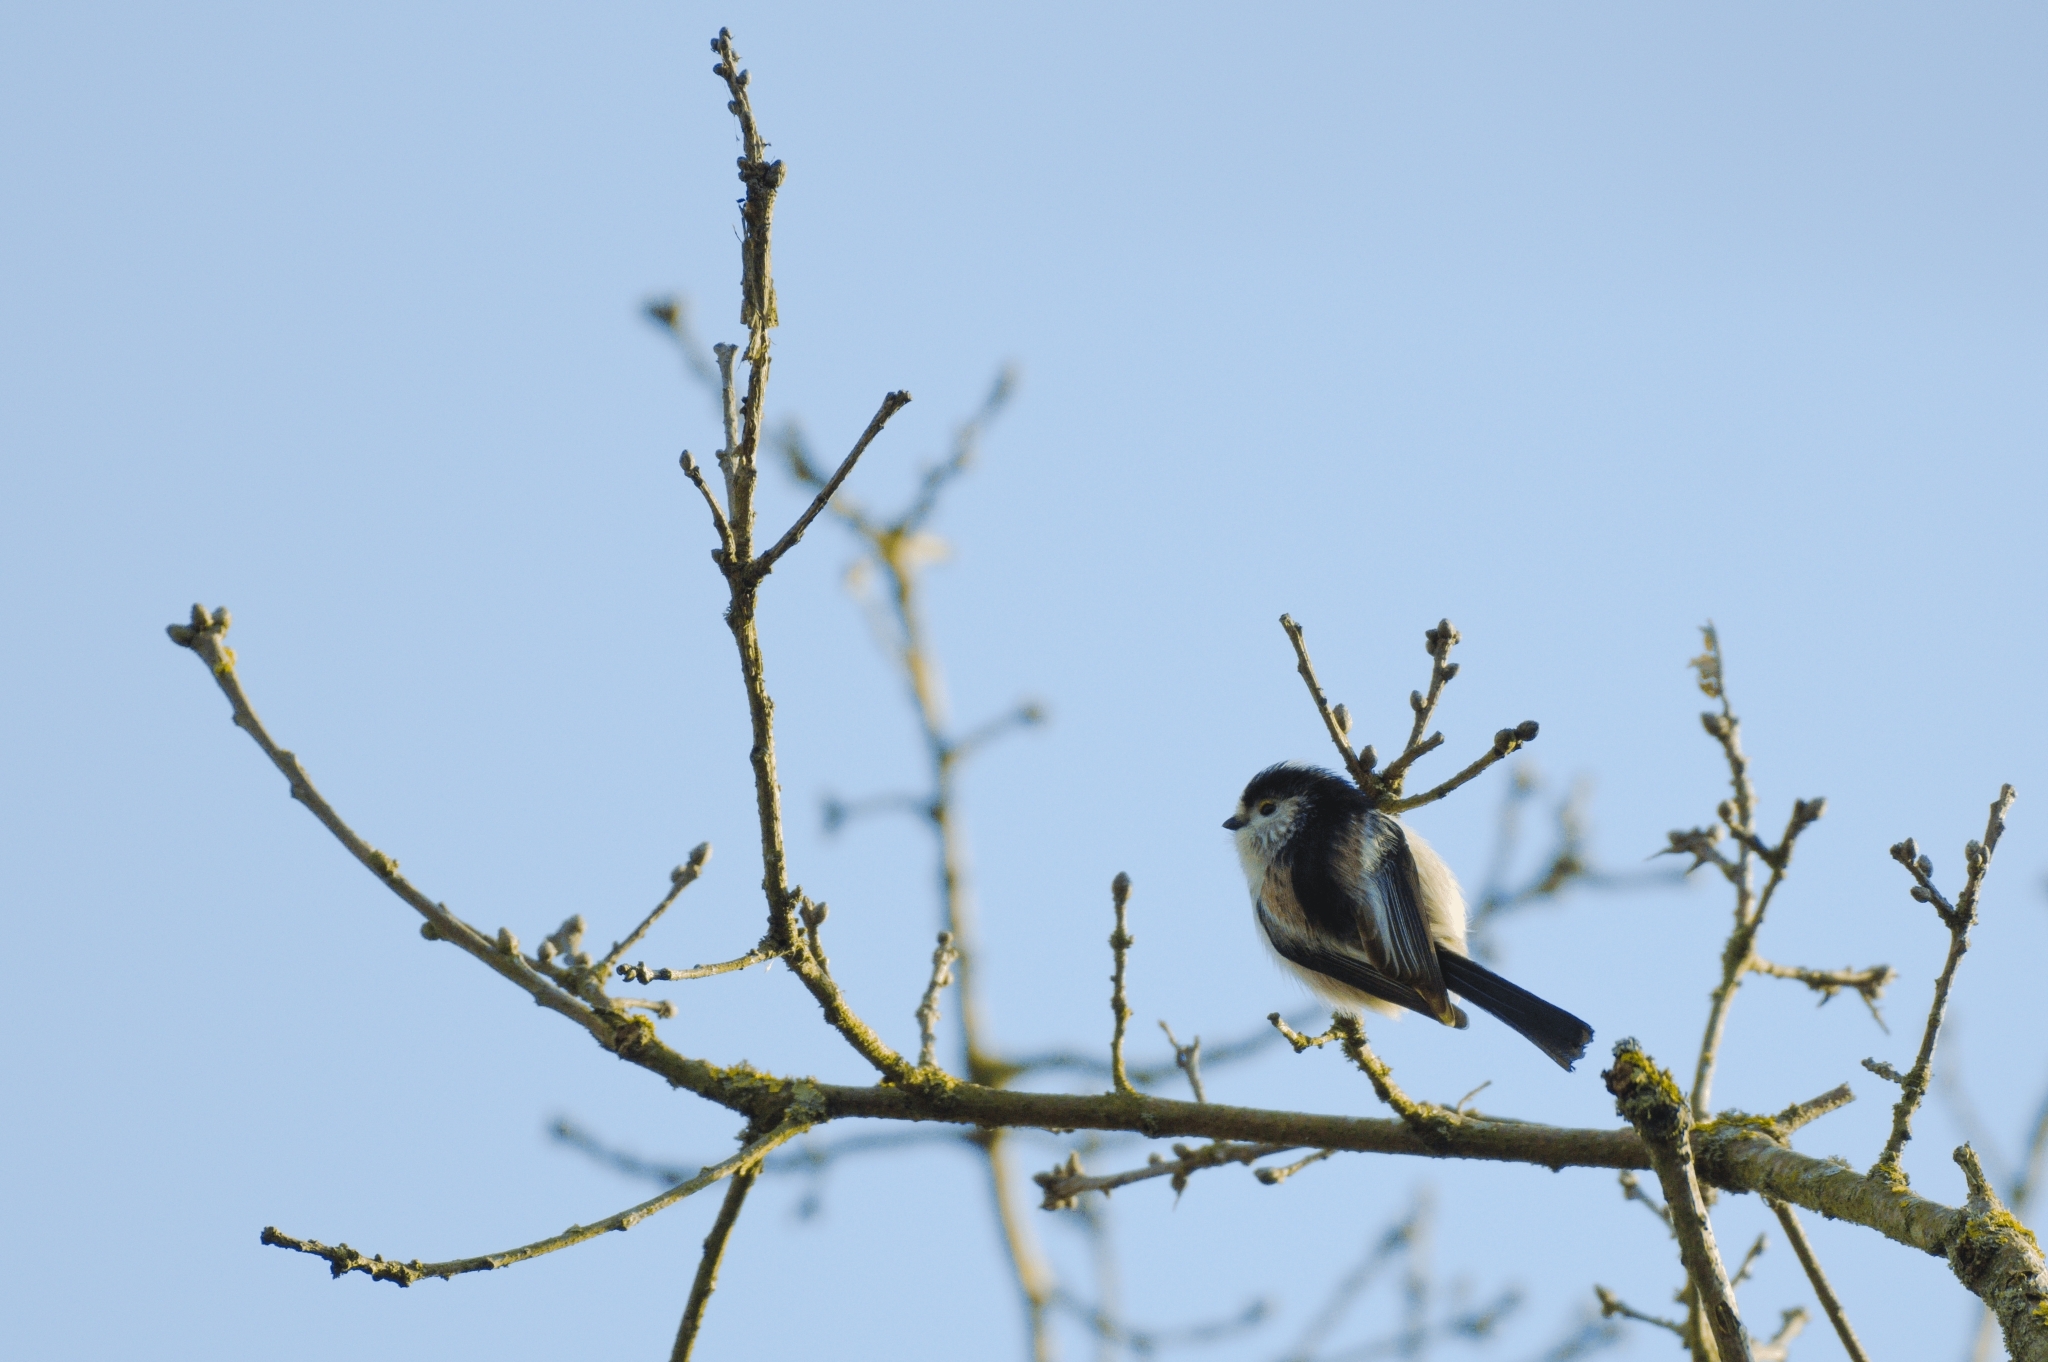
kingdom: Animalia
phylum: Chordata
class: Aves
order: Passeriformes
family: Aegithalidae
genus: Aegithalos
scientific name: Aegithalos caudatus
